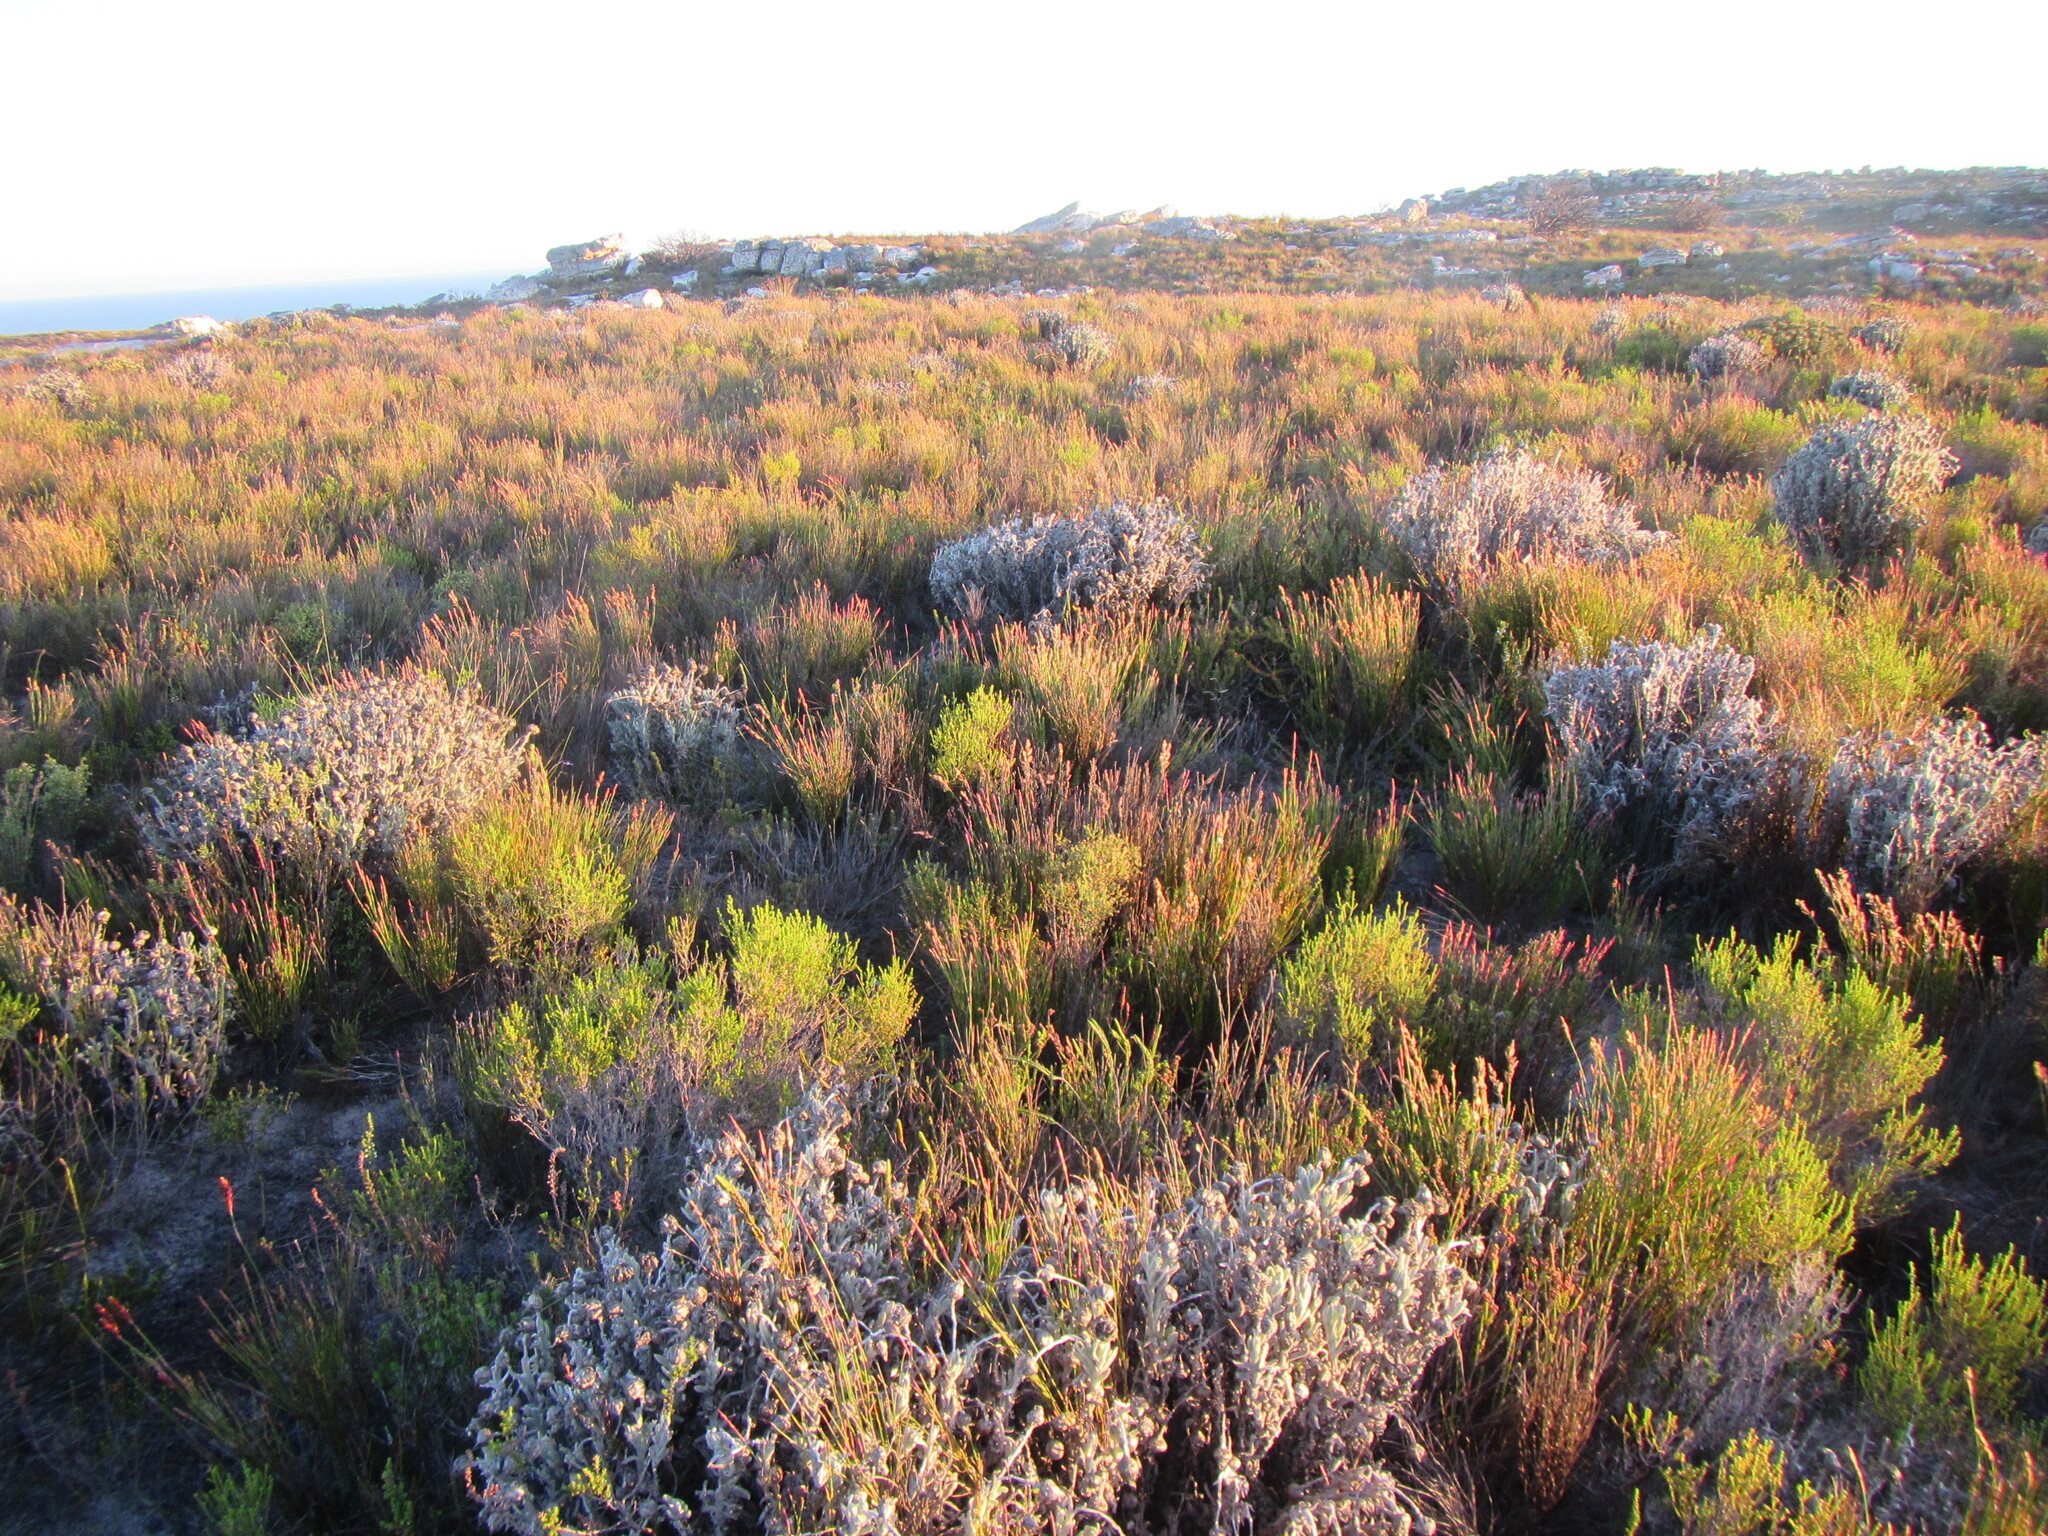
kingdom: Plantae
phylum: Tracheophyta
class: Liliopsida
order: Poales
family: Cyperaceae
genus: Schoenus
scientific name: Schoenus compactus
